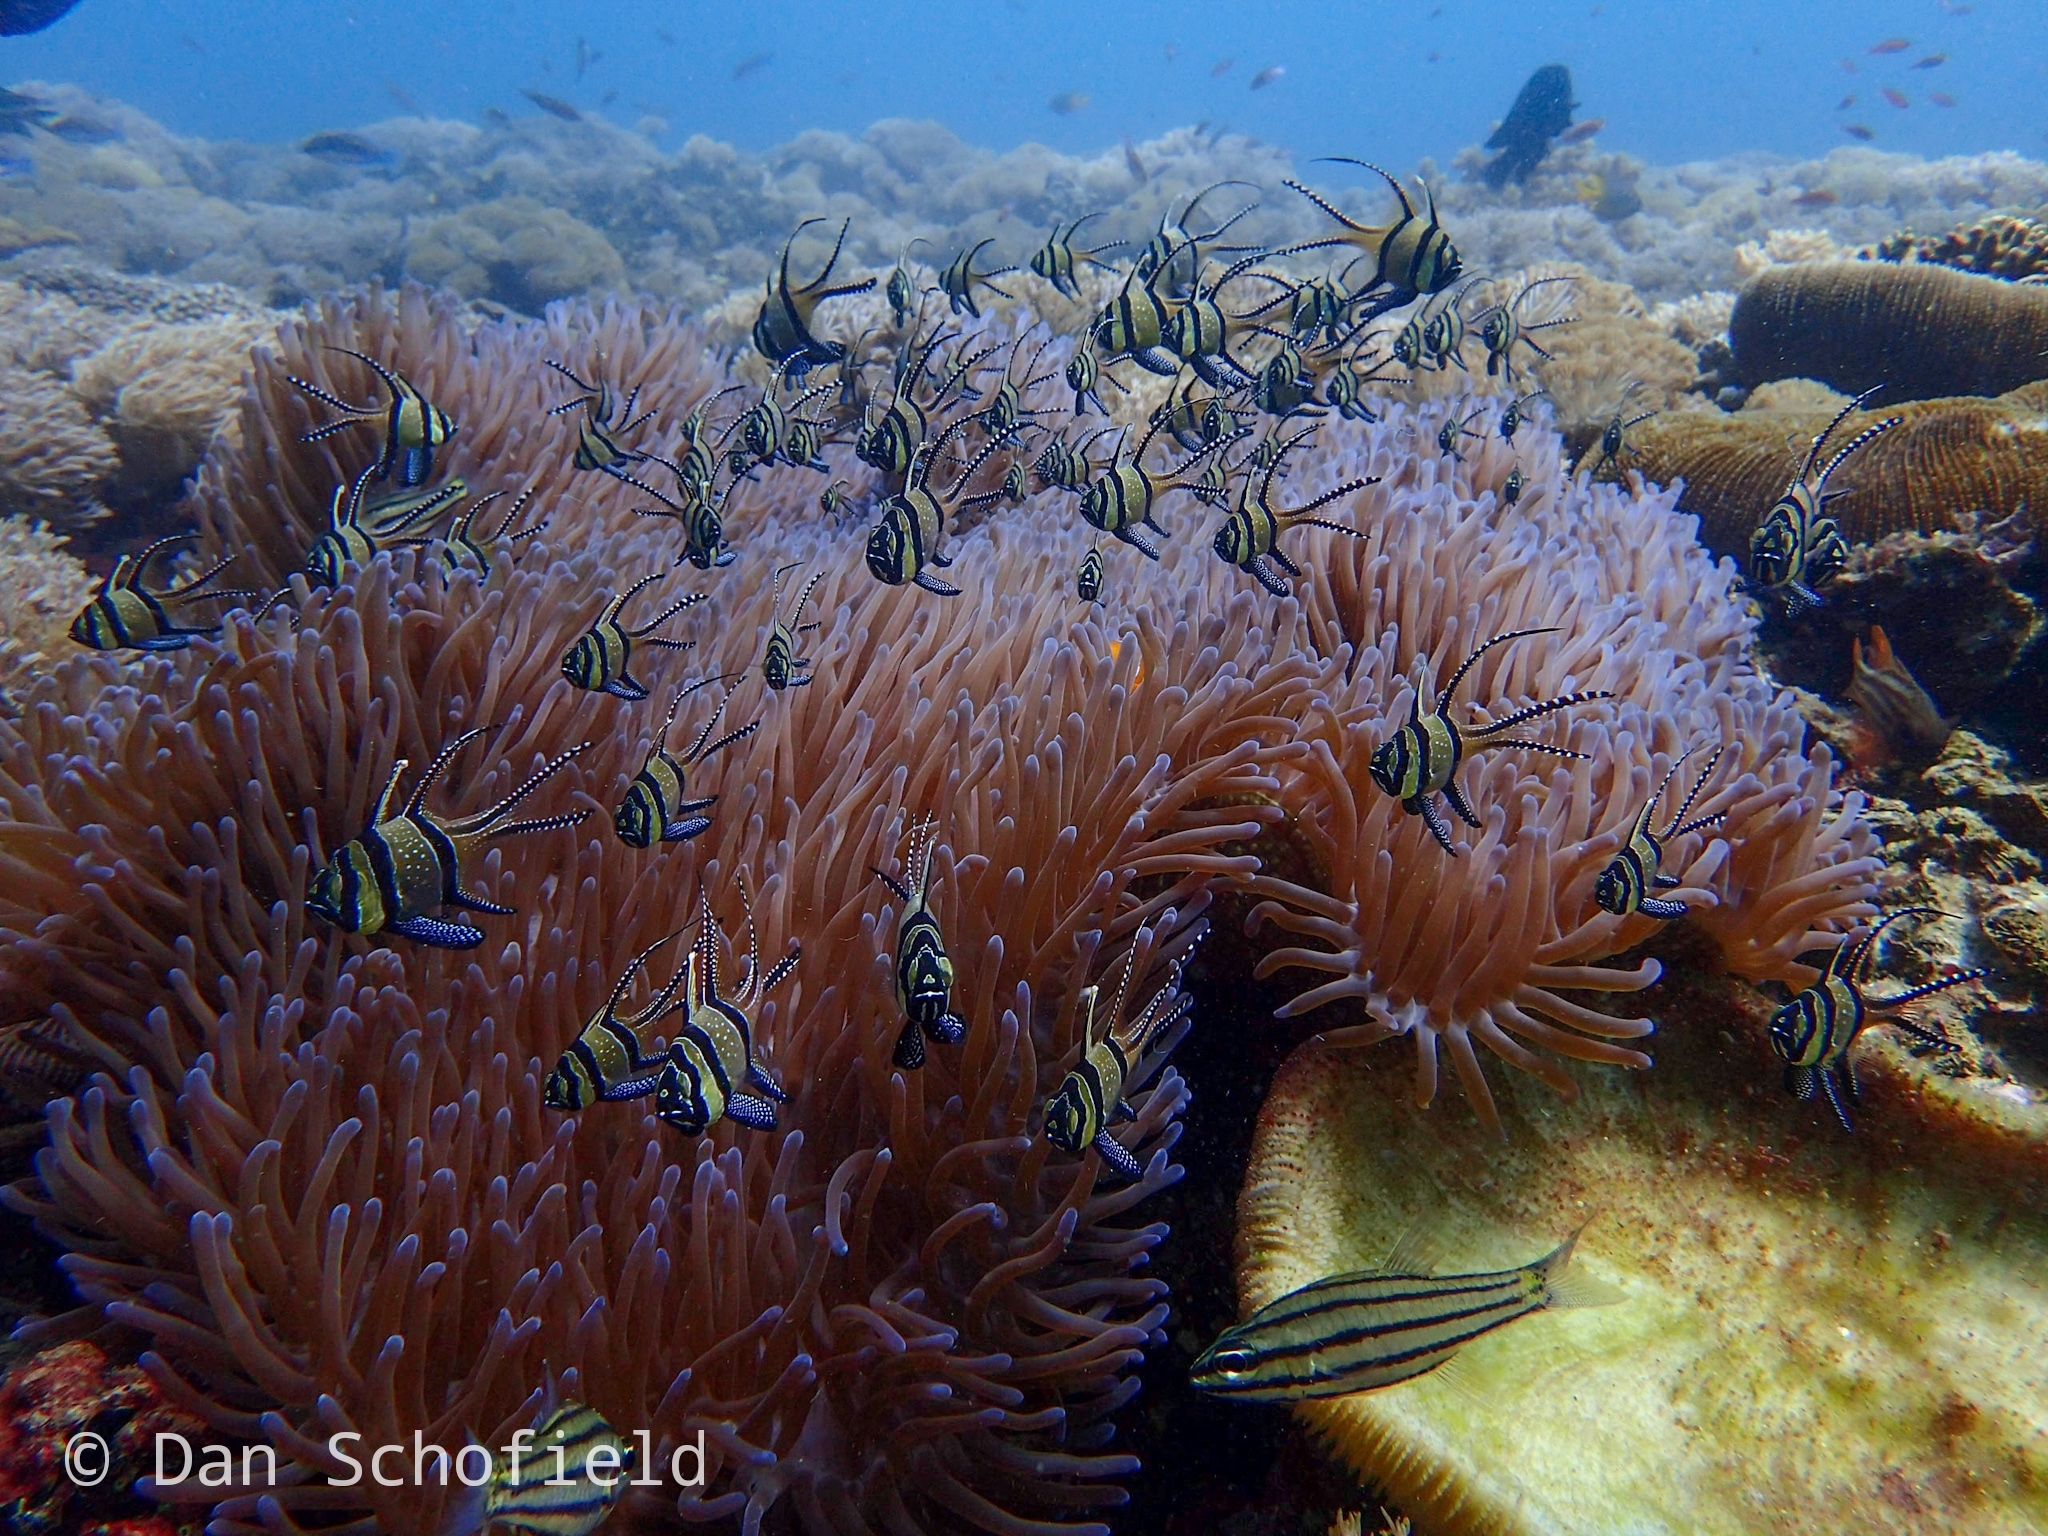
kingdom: Animalia
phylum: Chordata
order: Perciformes
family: Apogonidae
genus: Pterapogon
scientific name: Pterapogon kauderni
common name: Banggai cardinalfish
